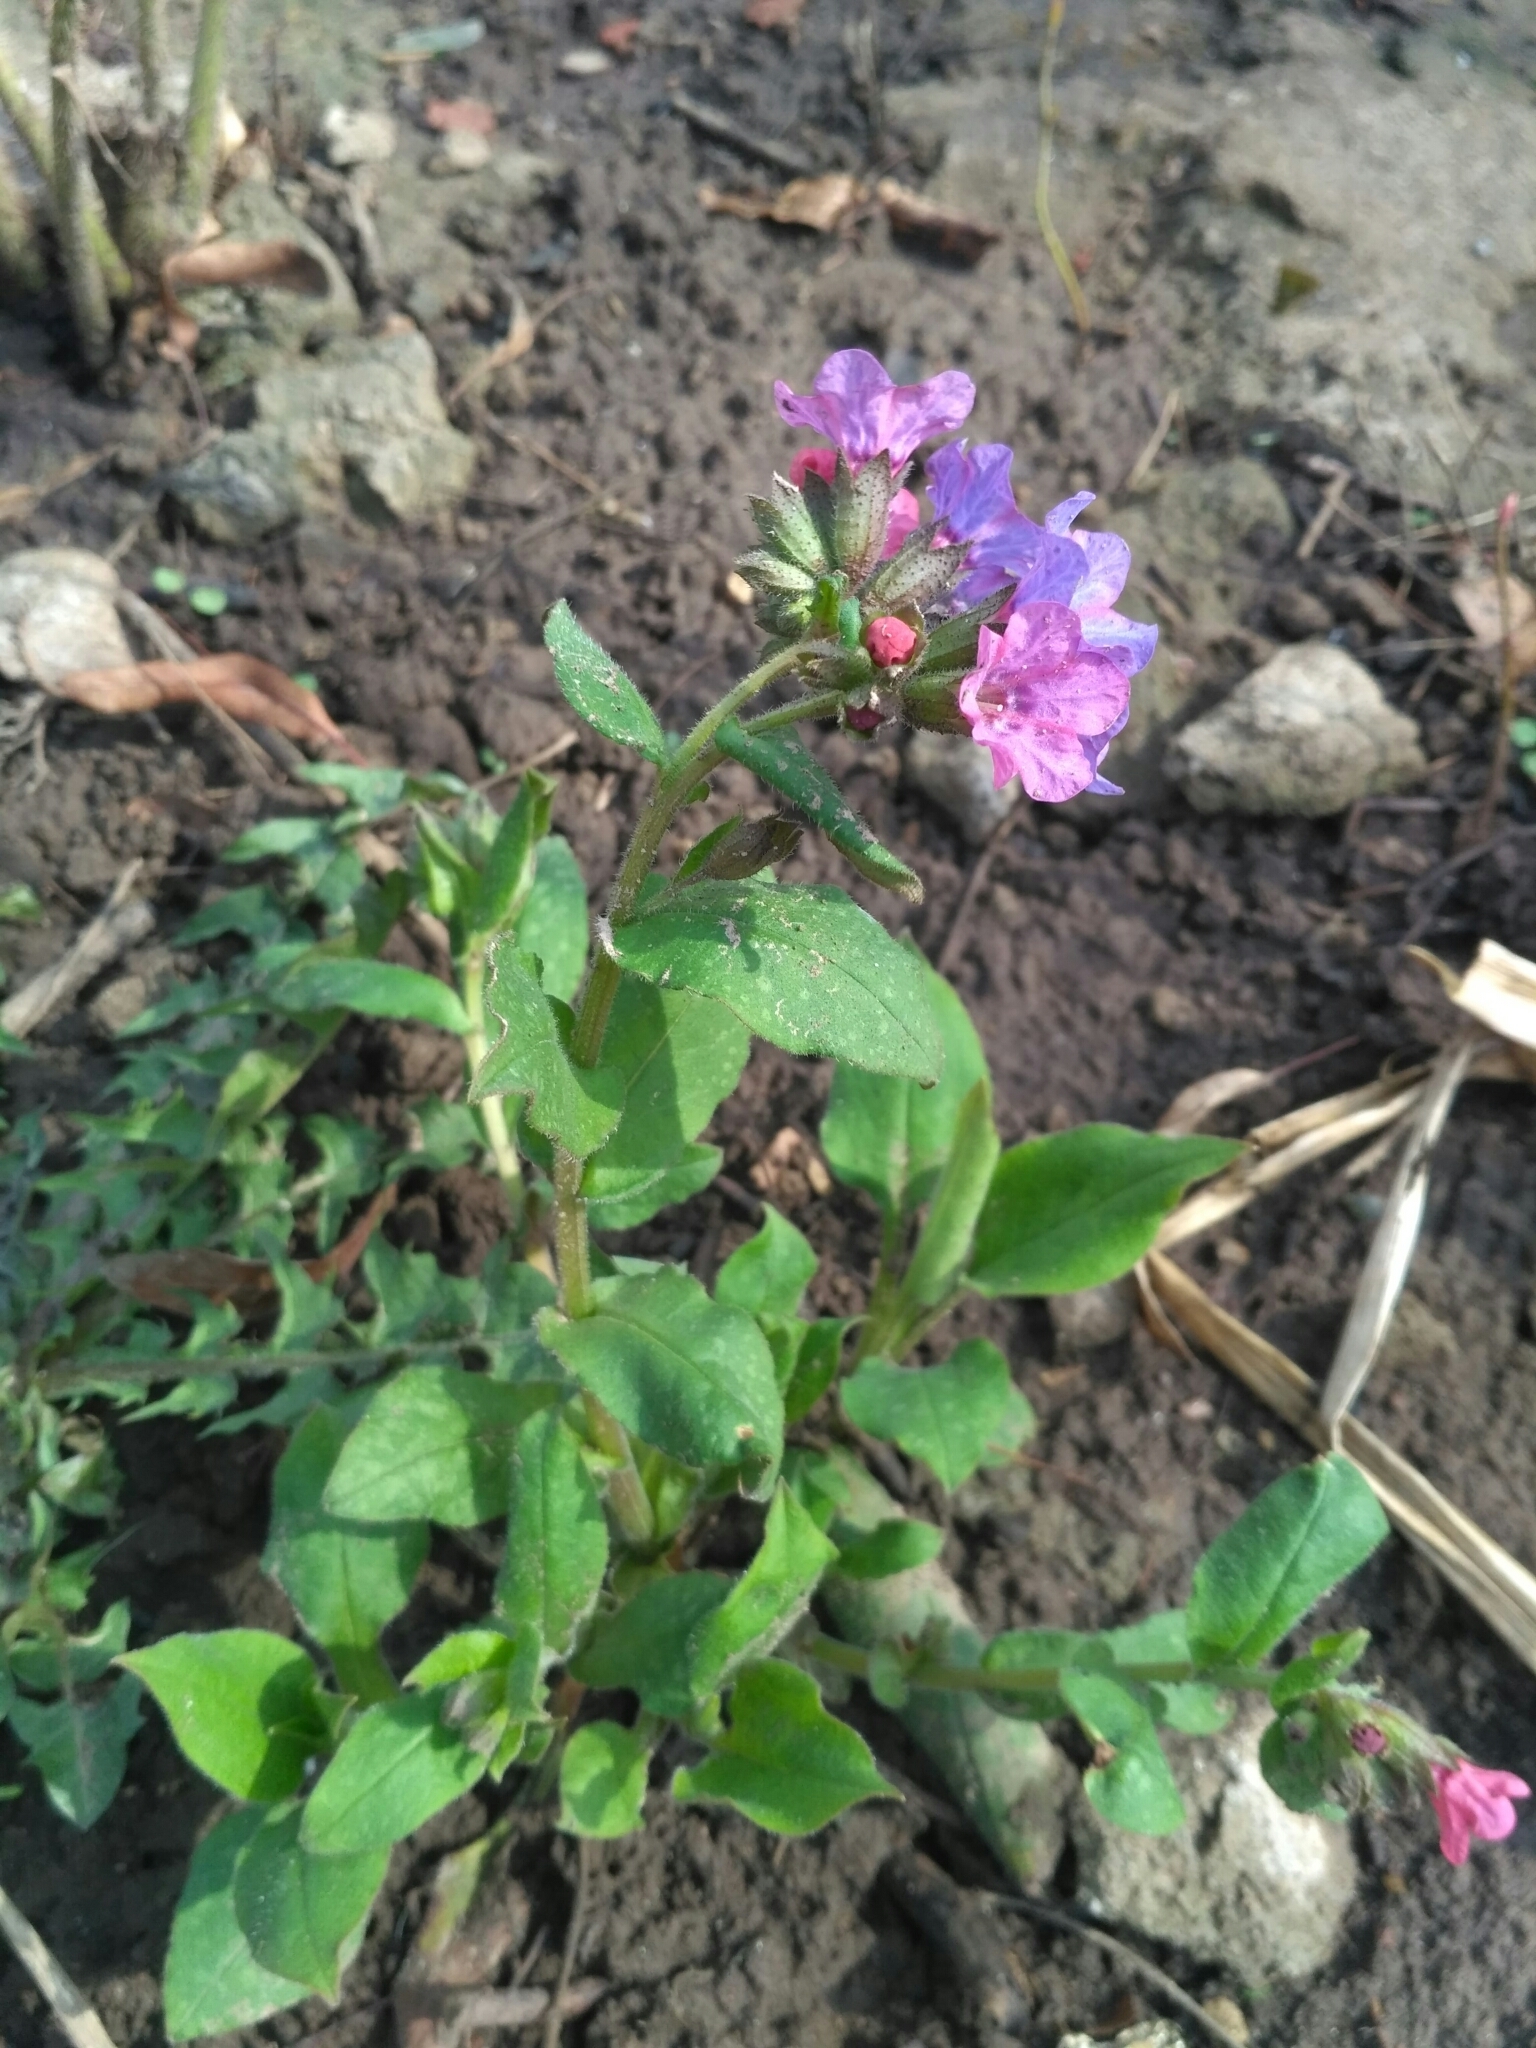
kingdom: Plantae
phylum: Tracheophyta
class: Magnoliopsida
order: Boraginales
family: Boraginaceae
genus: Pulmonaria
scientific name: Pulmonaria obscura
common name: Suffolk lungwort
